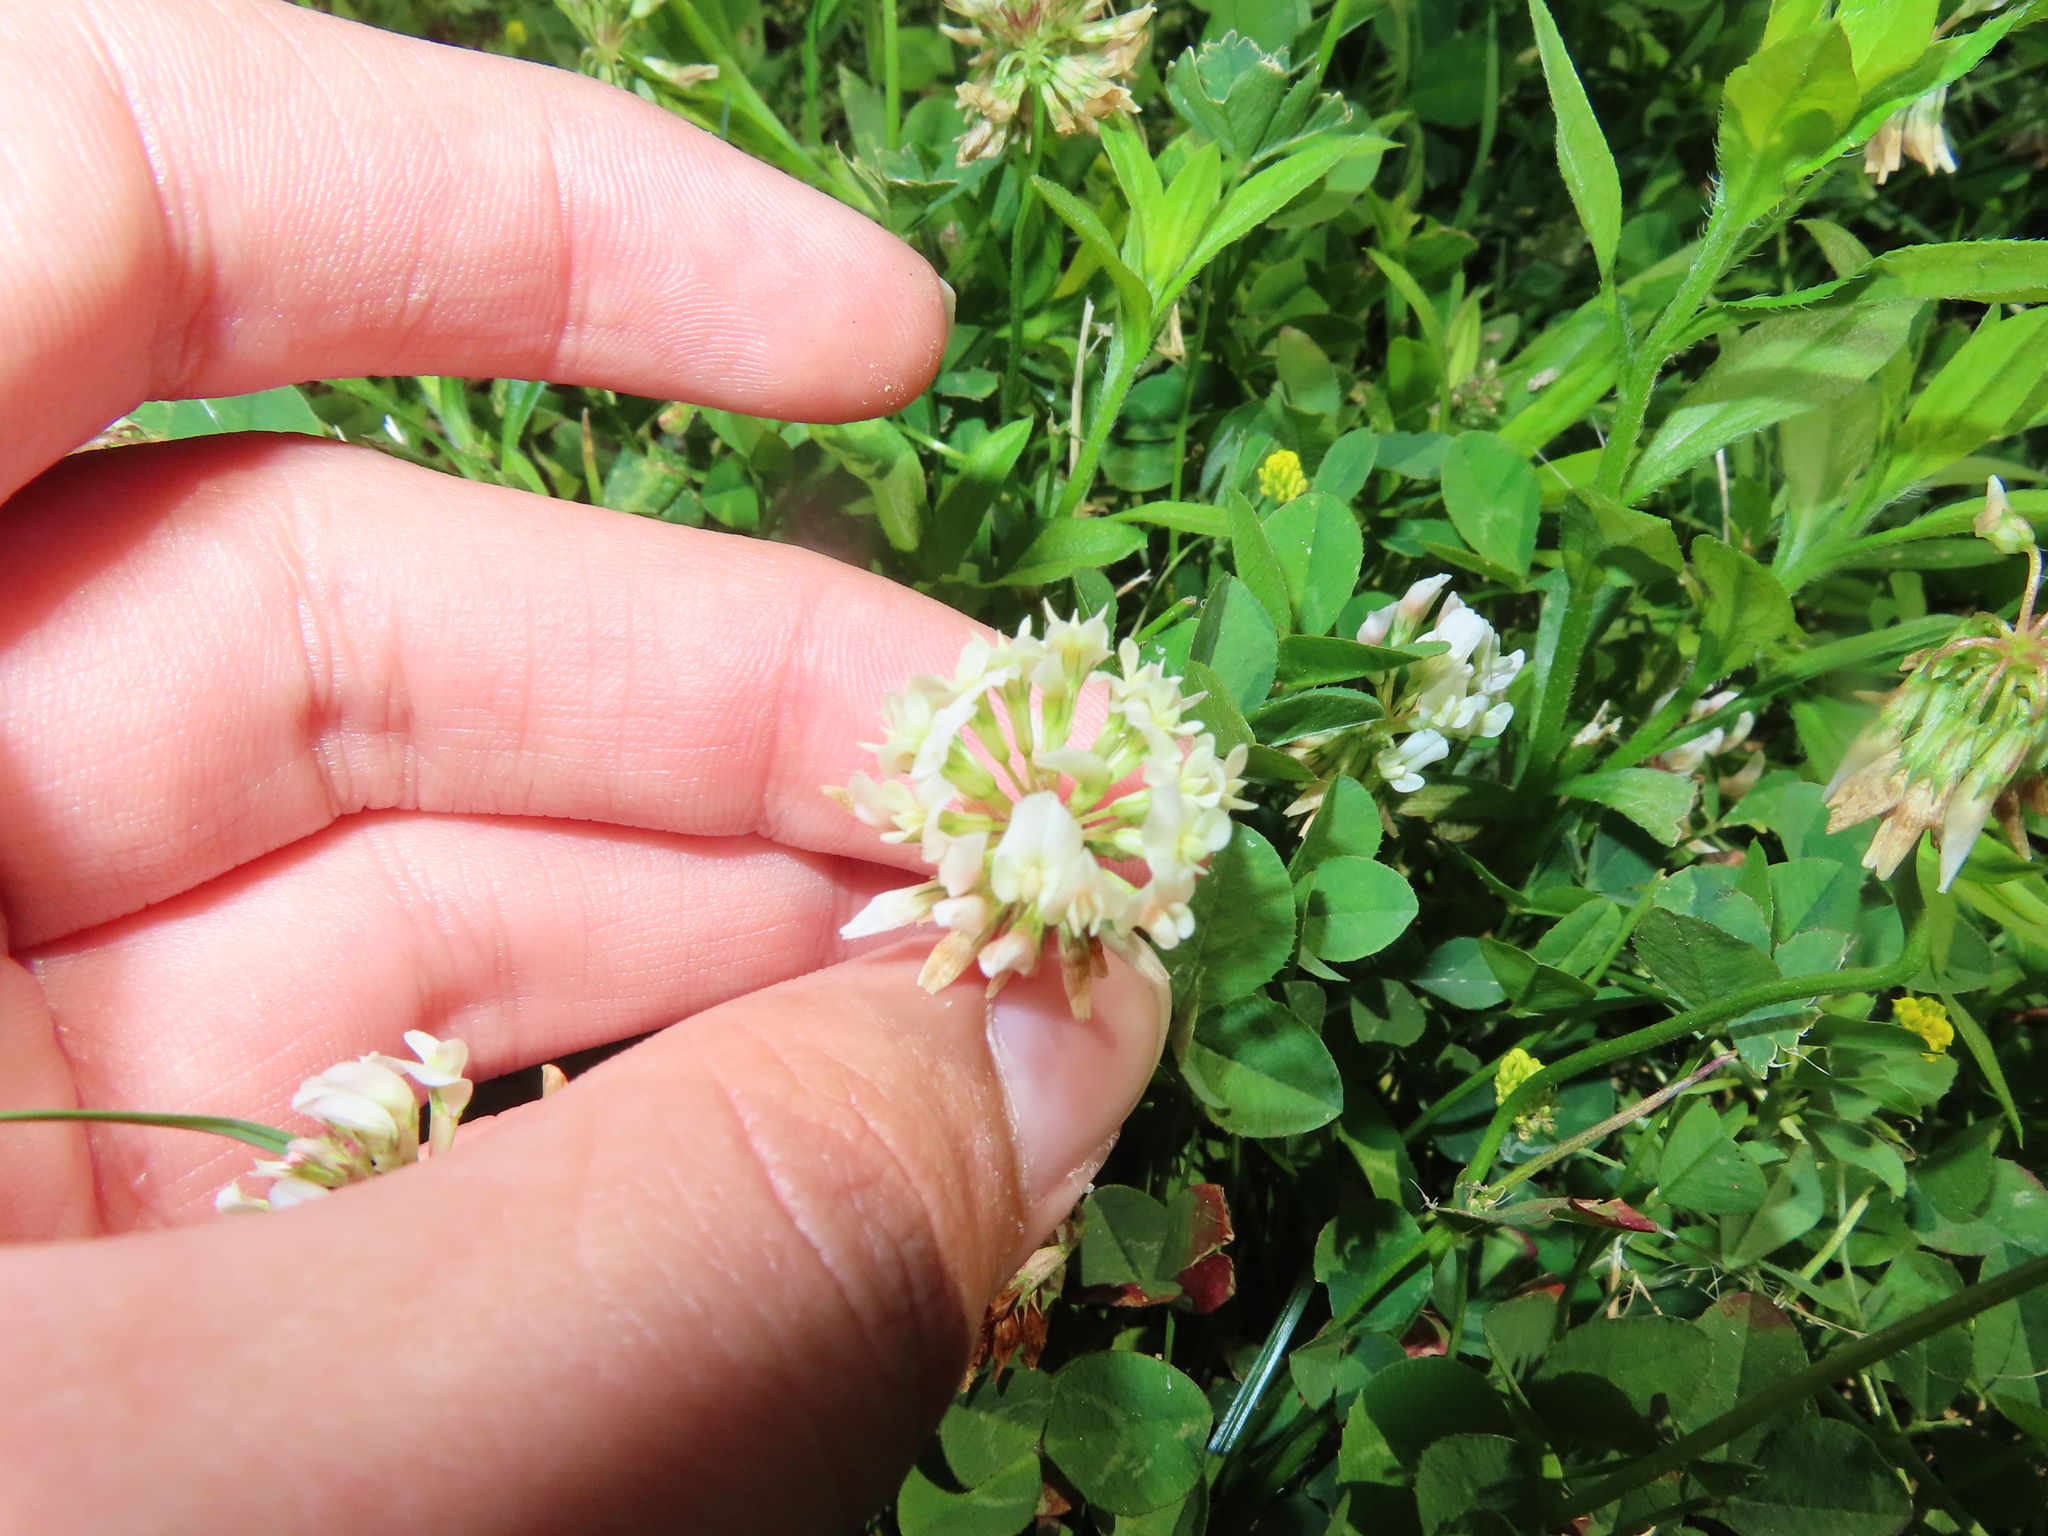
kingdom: Plantae
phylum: Tracheophyta
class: Magnoliopsida
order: Fabales
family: Fabaceae
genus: Trifolium
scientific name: Trifolium repens
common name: White clover
